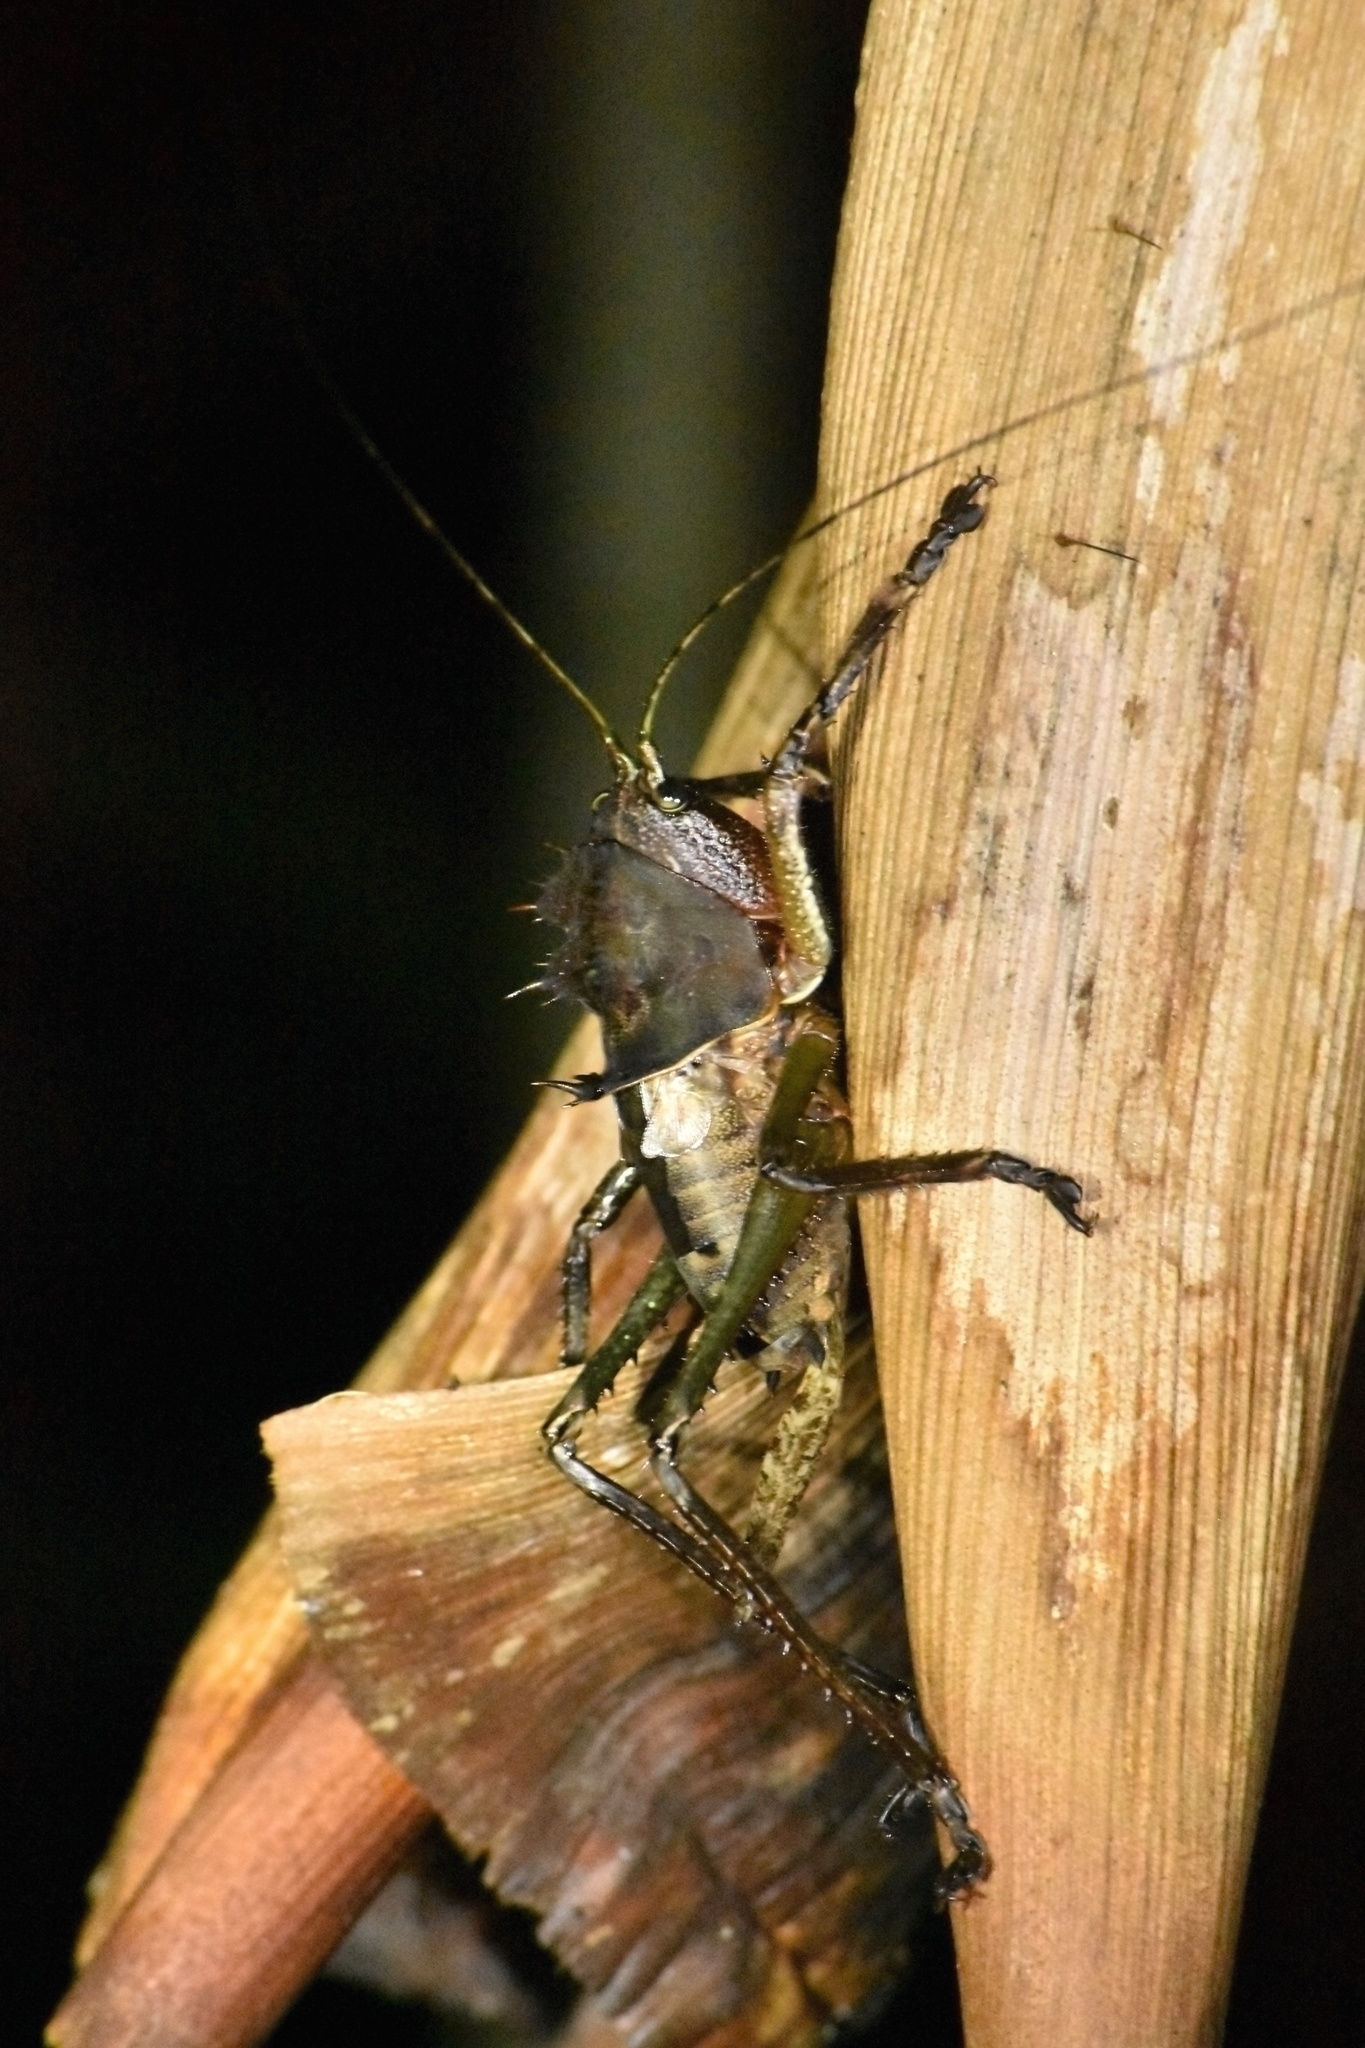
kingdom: Animalia
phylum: Arthropoda
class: Insecta
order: Orthoptera
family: Tettigoniidae
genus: Lesina
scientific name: Lesina blanchardi
